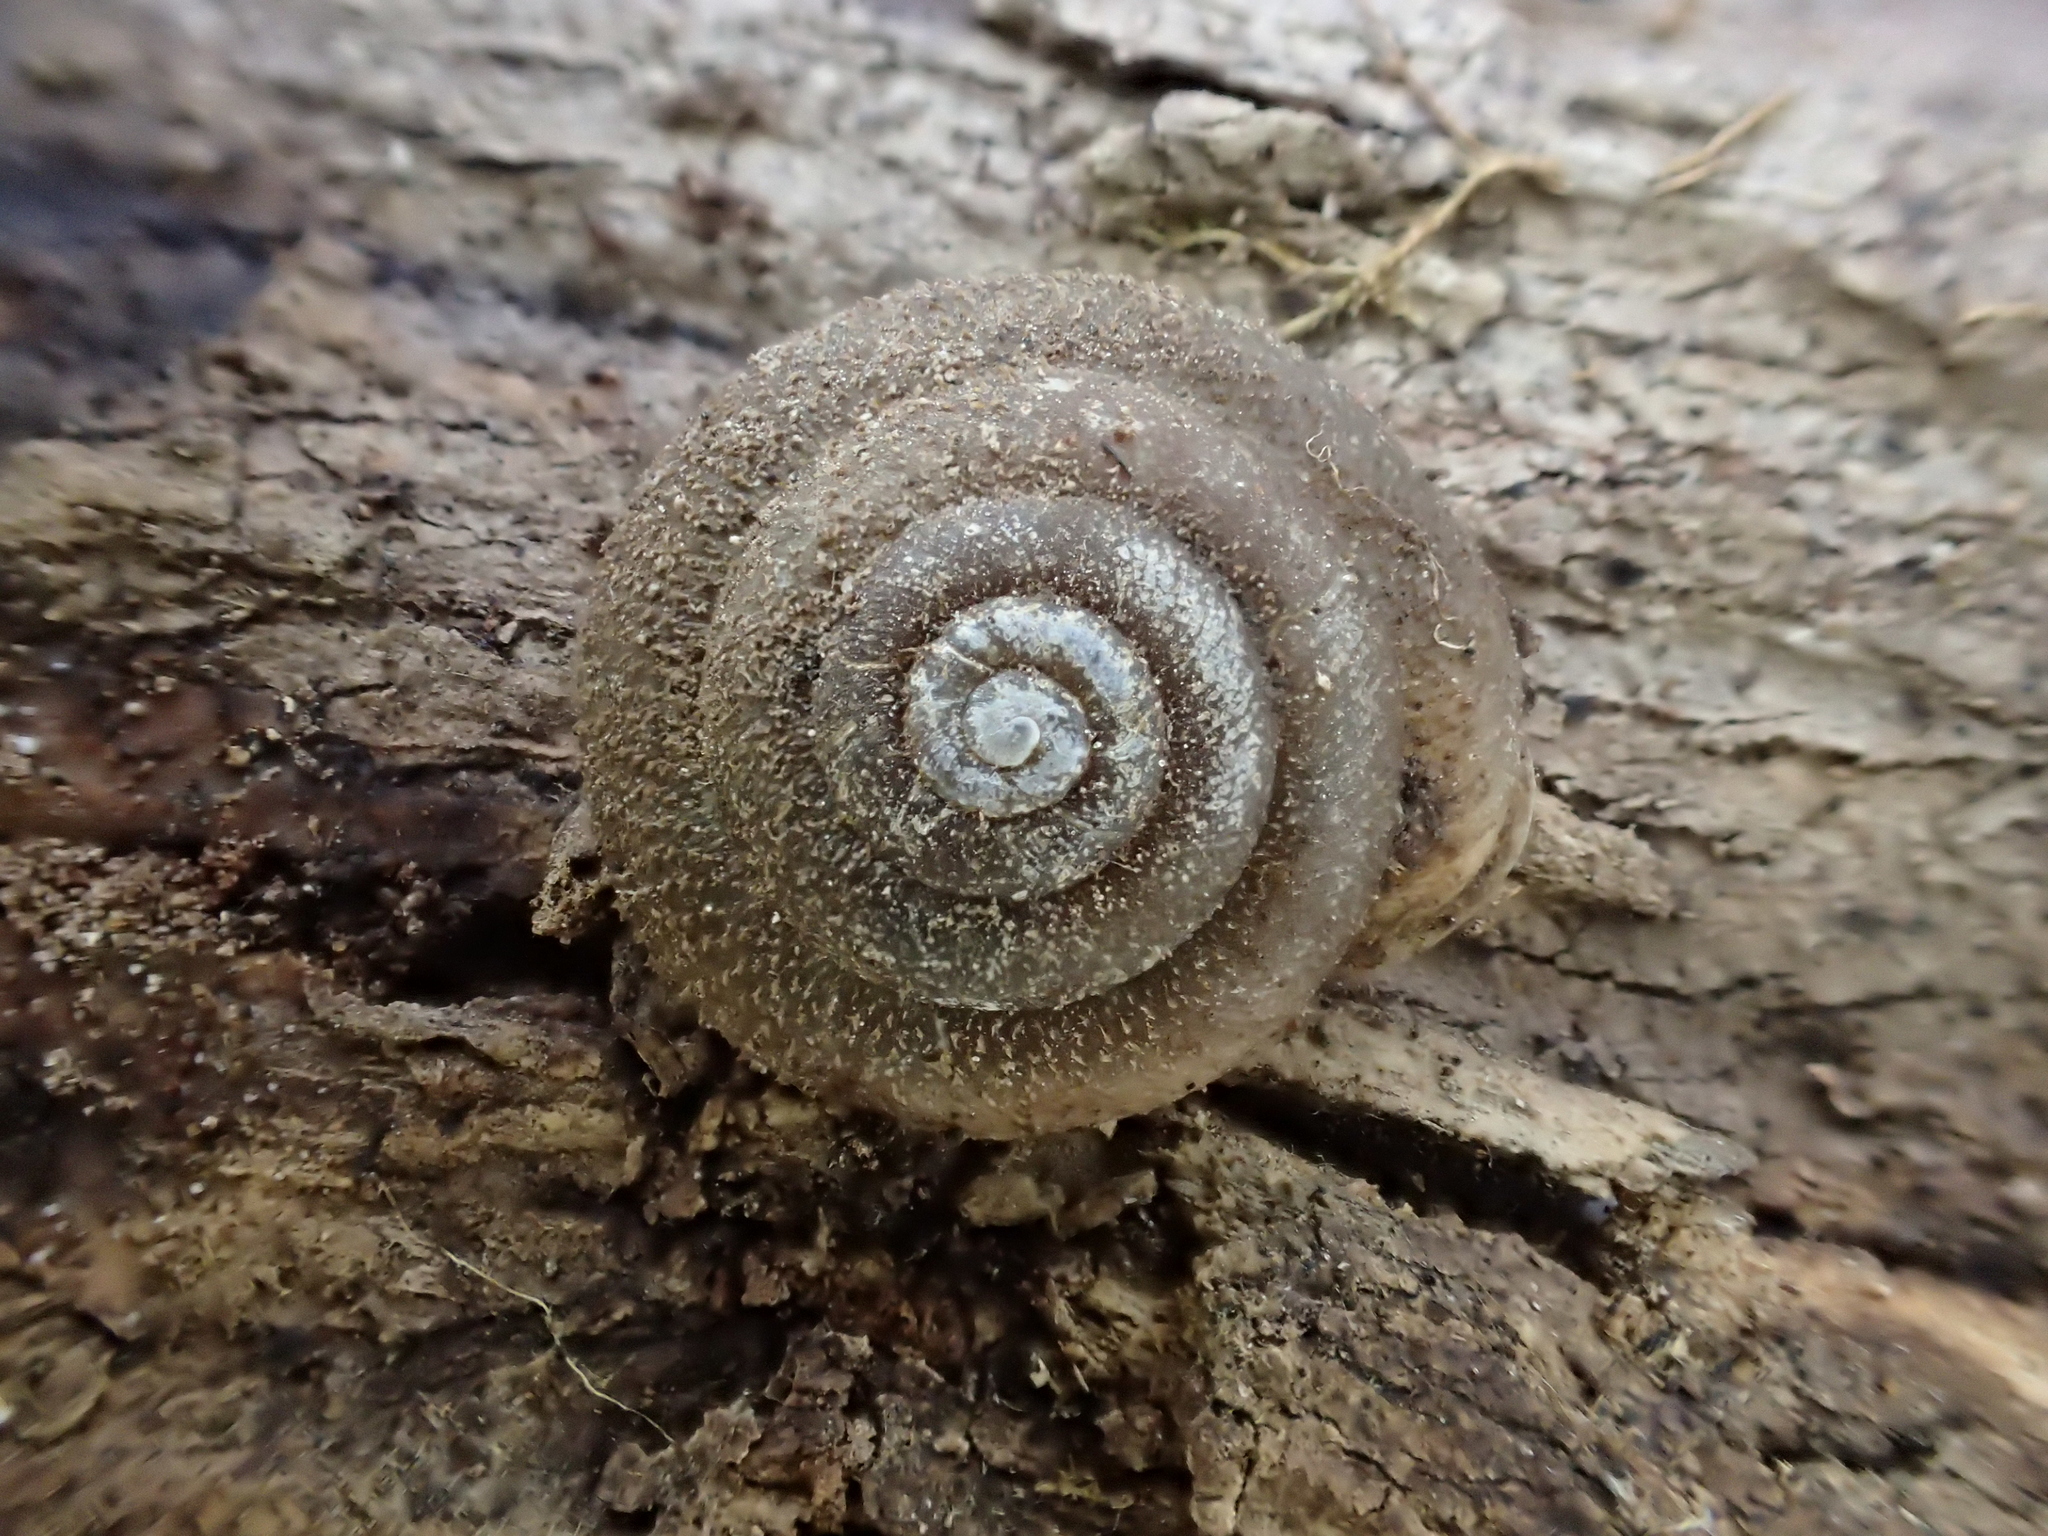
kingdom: Animalia
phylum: Mollusca
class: Gastropoda
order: Stylommatophora
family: Polygyridae
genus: Inflectarius
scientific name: Inflectarius inflectus
